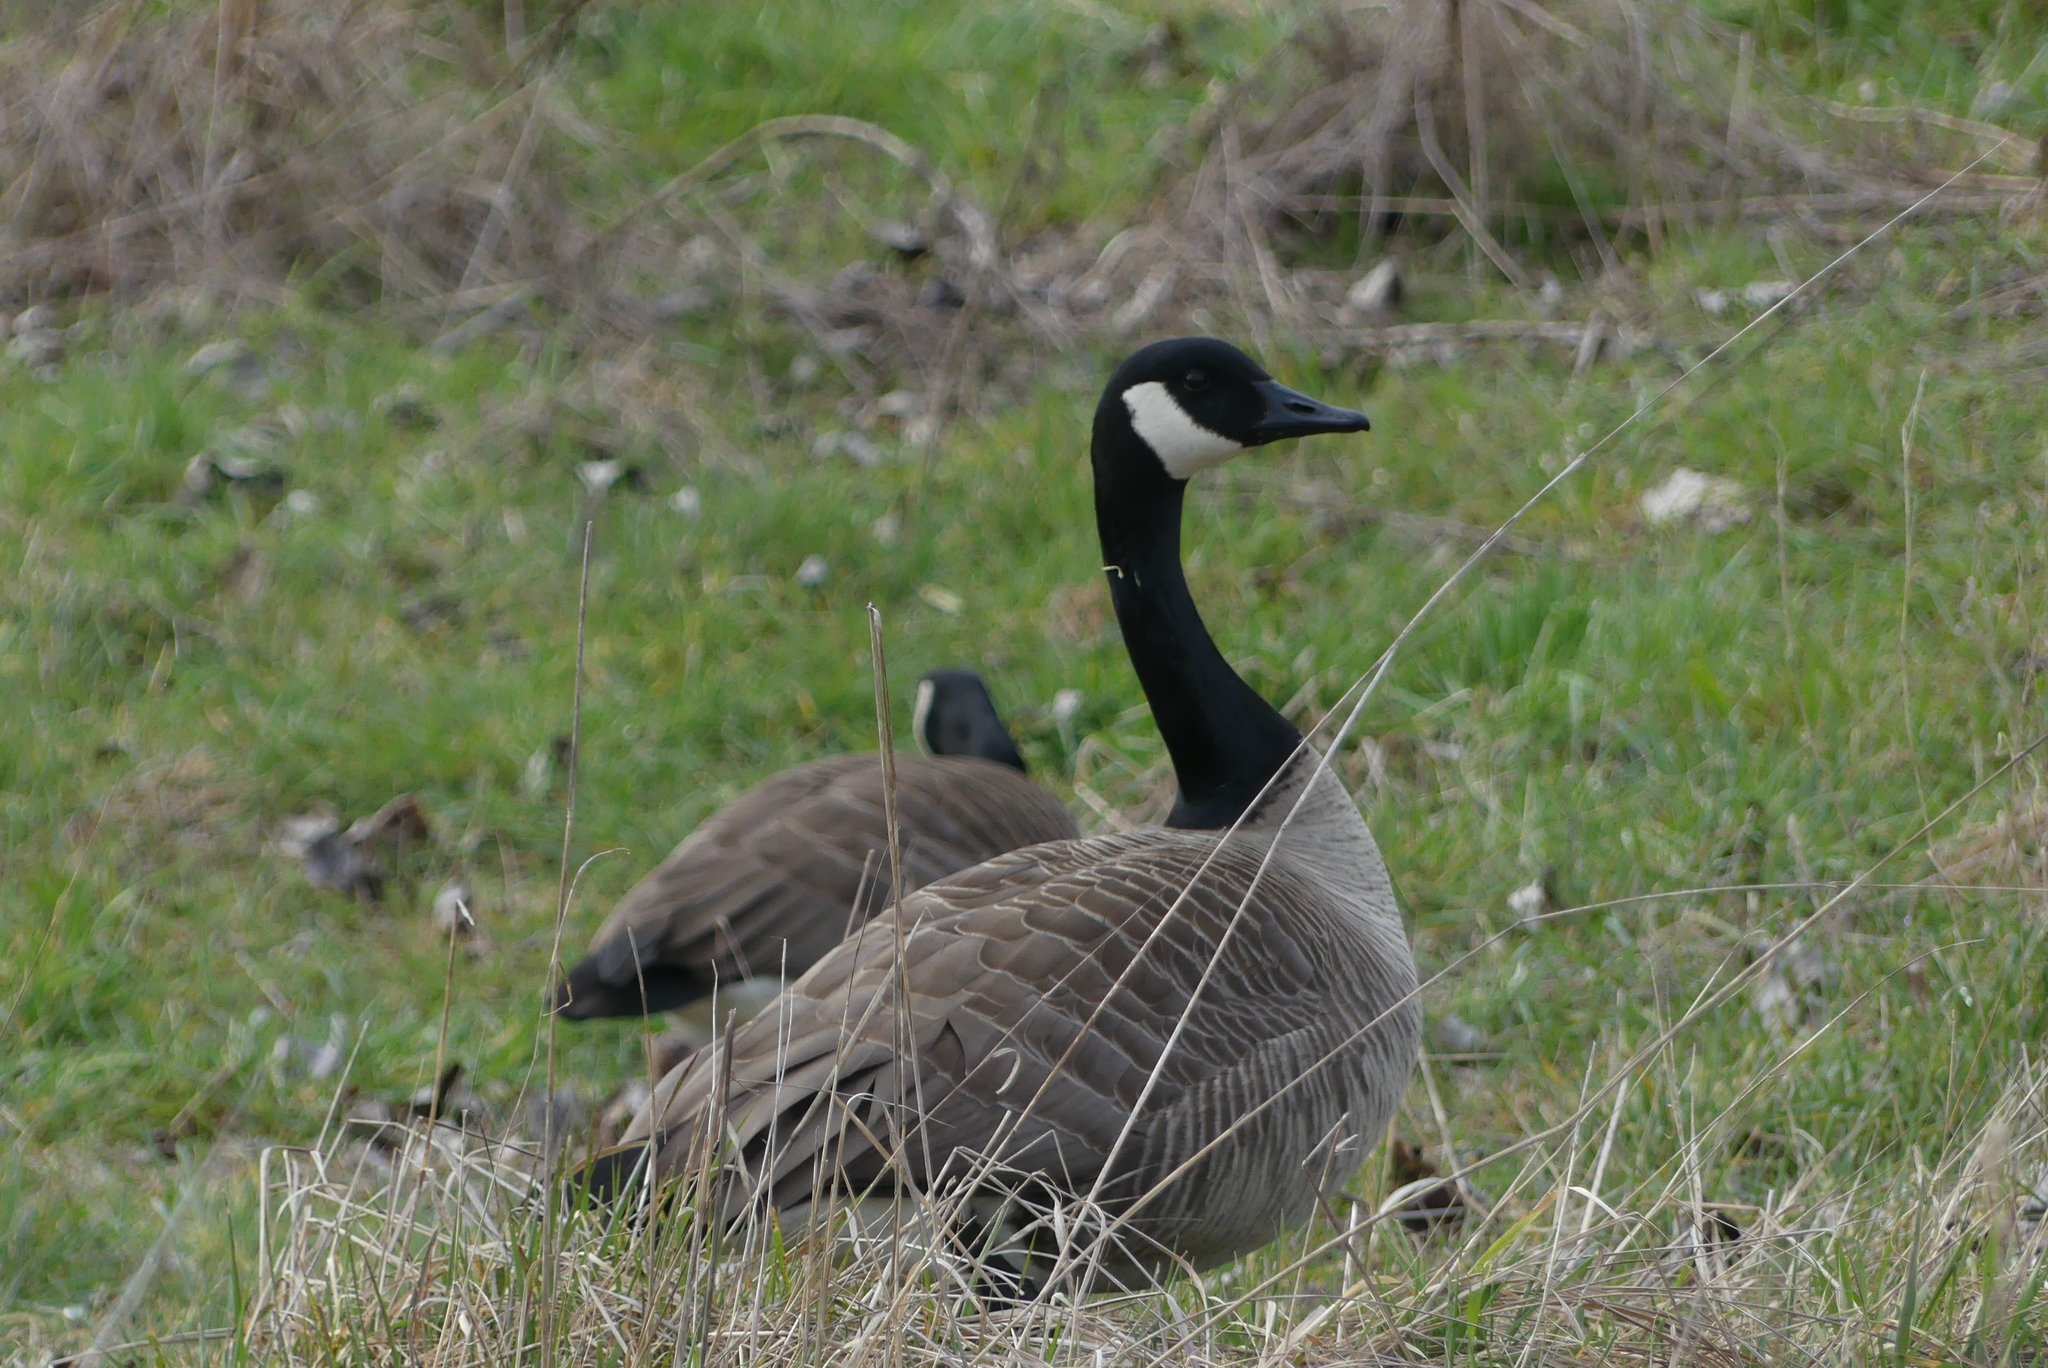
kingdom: Animalia
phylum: Chordata
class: Aves
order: Anseriformes
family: Anatidae
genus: Branta
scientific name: Branta canadensis
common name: Canada goose
